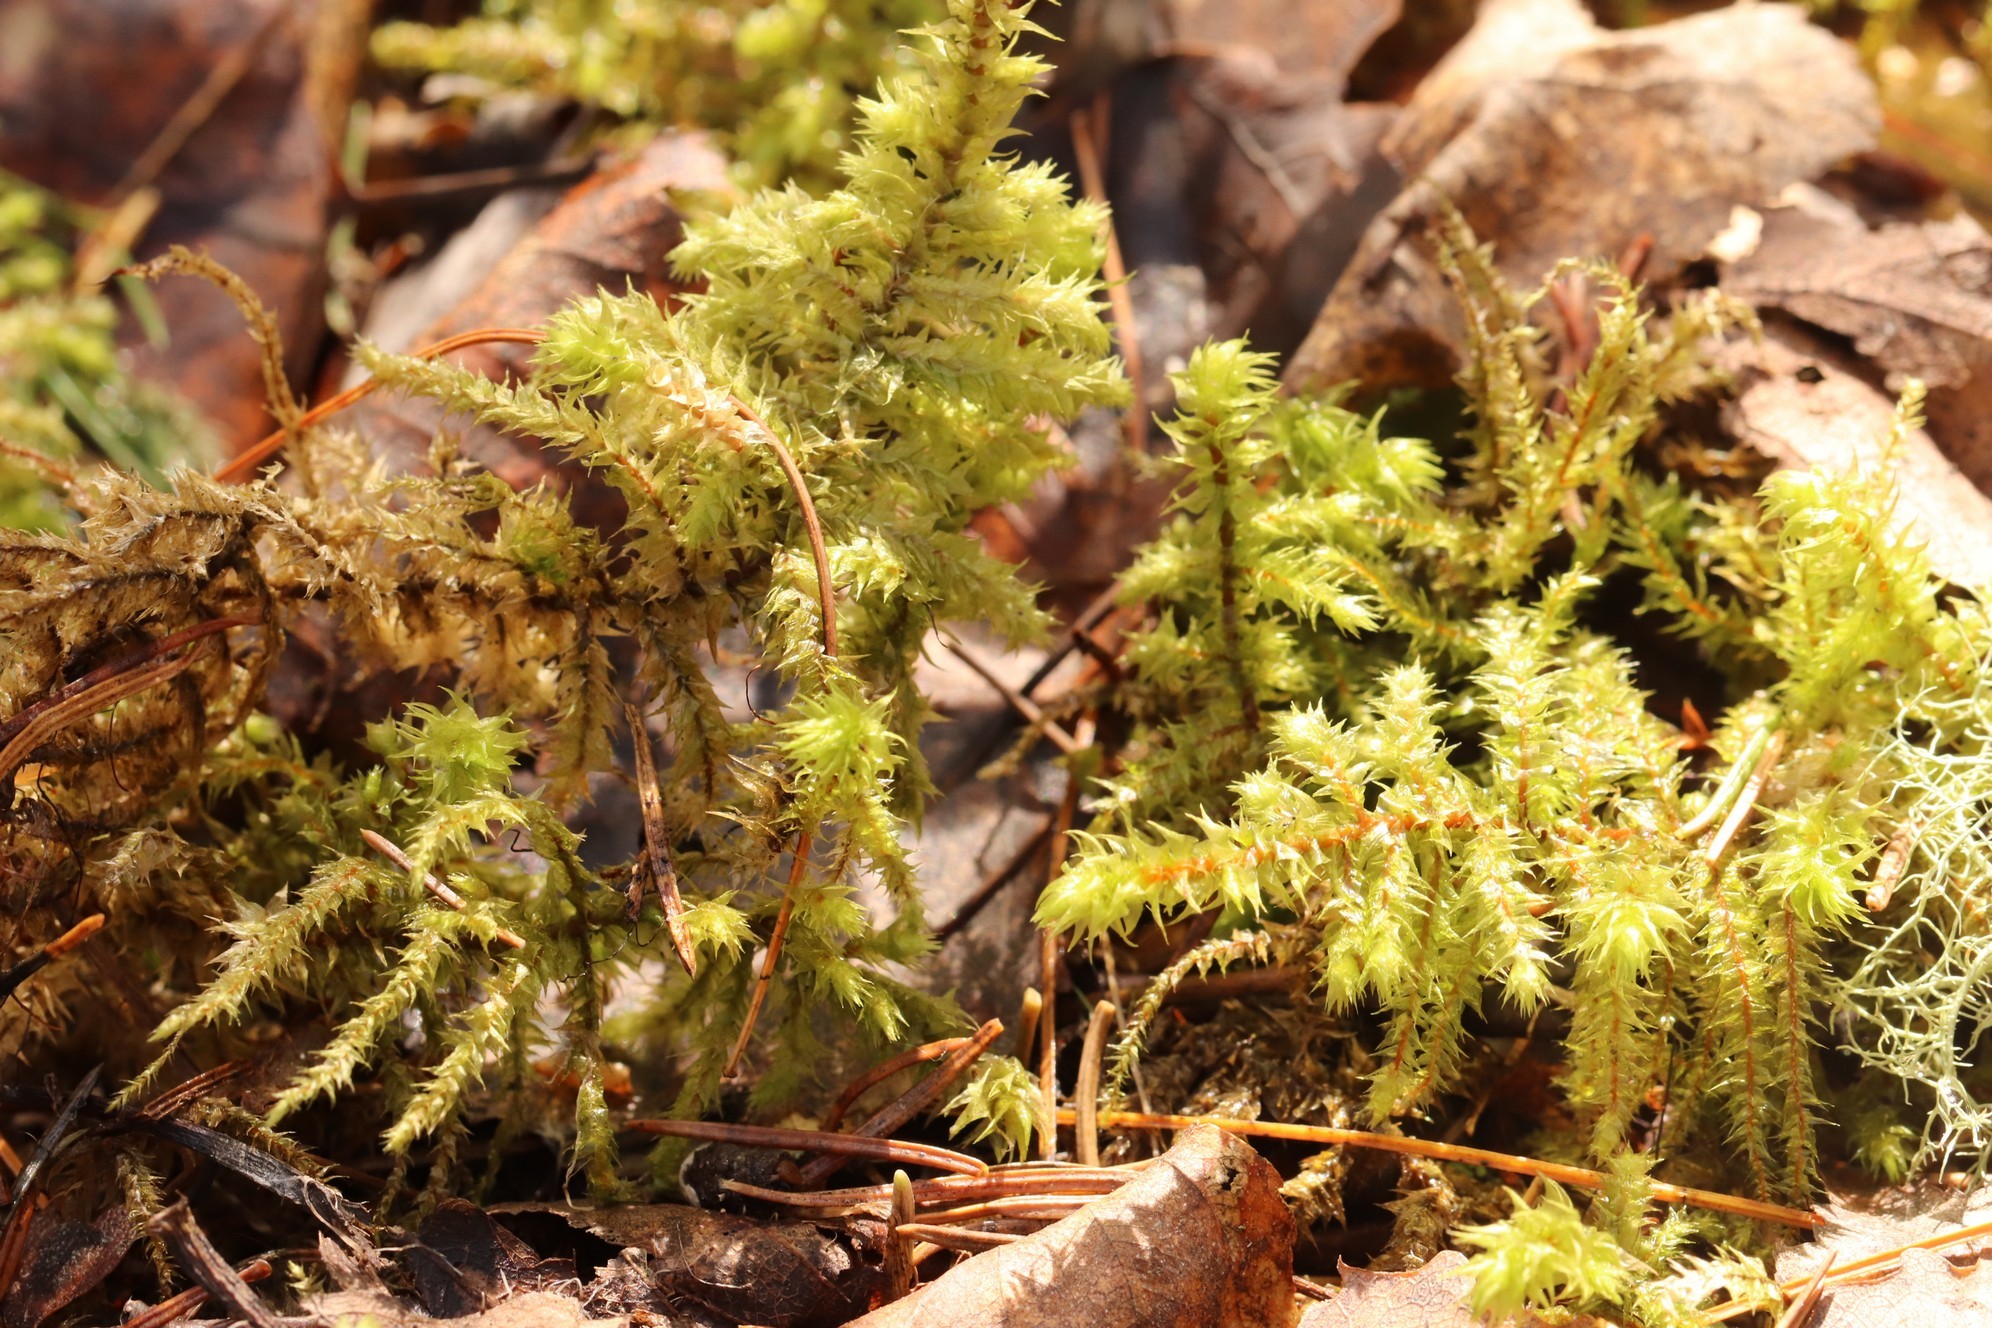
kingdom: Plantae
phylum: Bryophyta
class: Bryopsida
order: Hypnales
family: Hylocomiaceae
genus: Hylocomiadelphus
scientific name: Hylocomiadelphus triquetrus
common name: Rough goose neck moss
